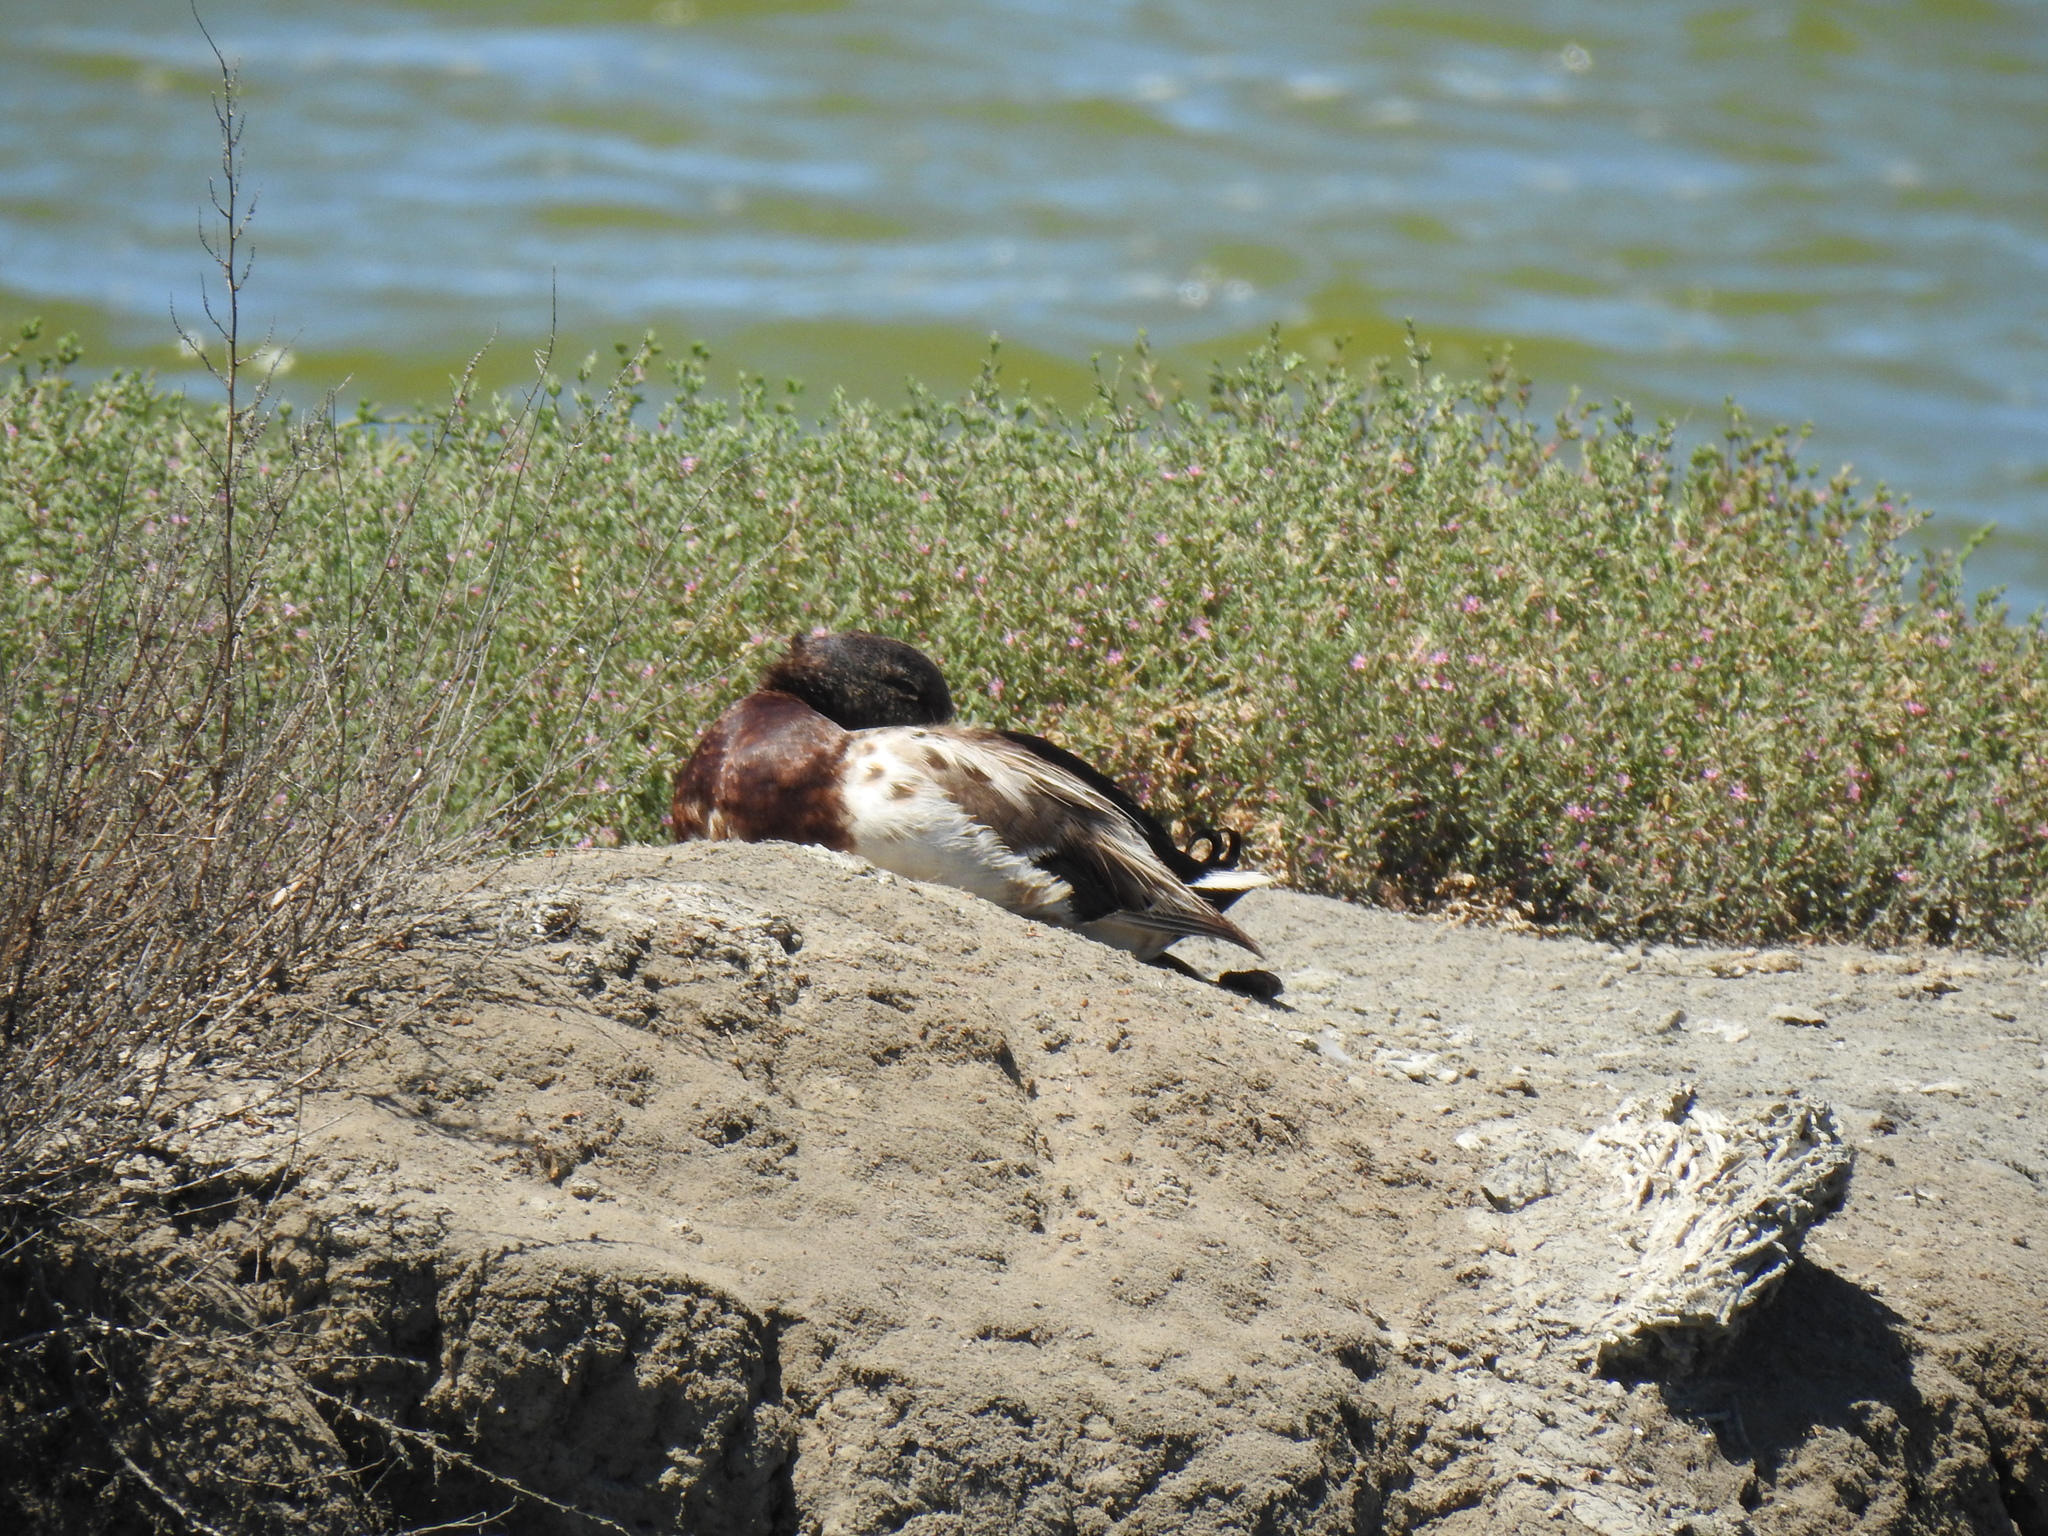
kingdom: Animalia
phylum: Chordata
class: Aves
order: Anseriformes
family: Anatidae
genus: Anas
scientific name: Anas platyrhynchos
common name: Mallard
